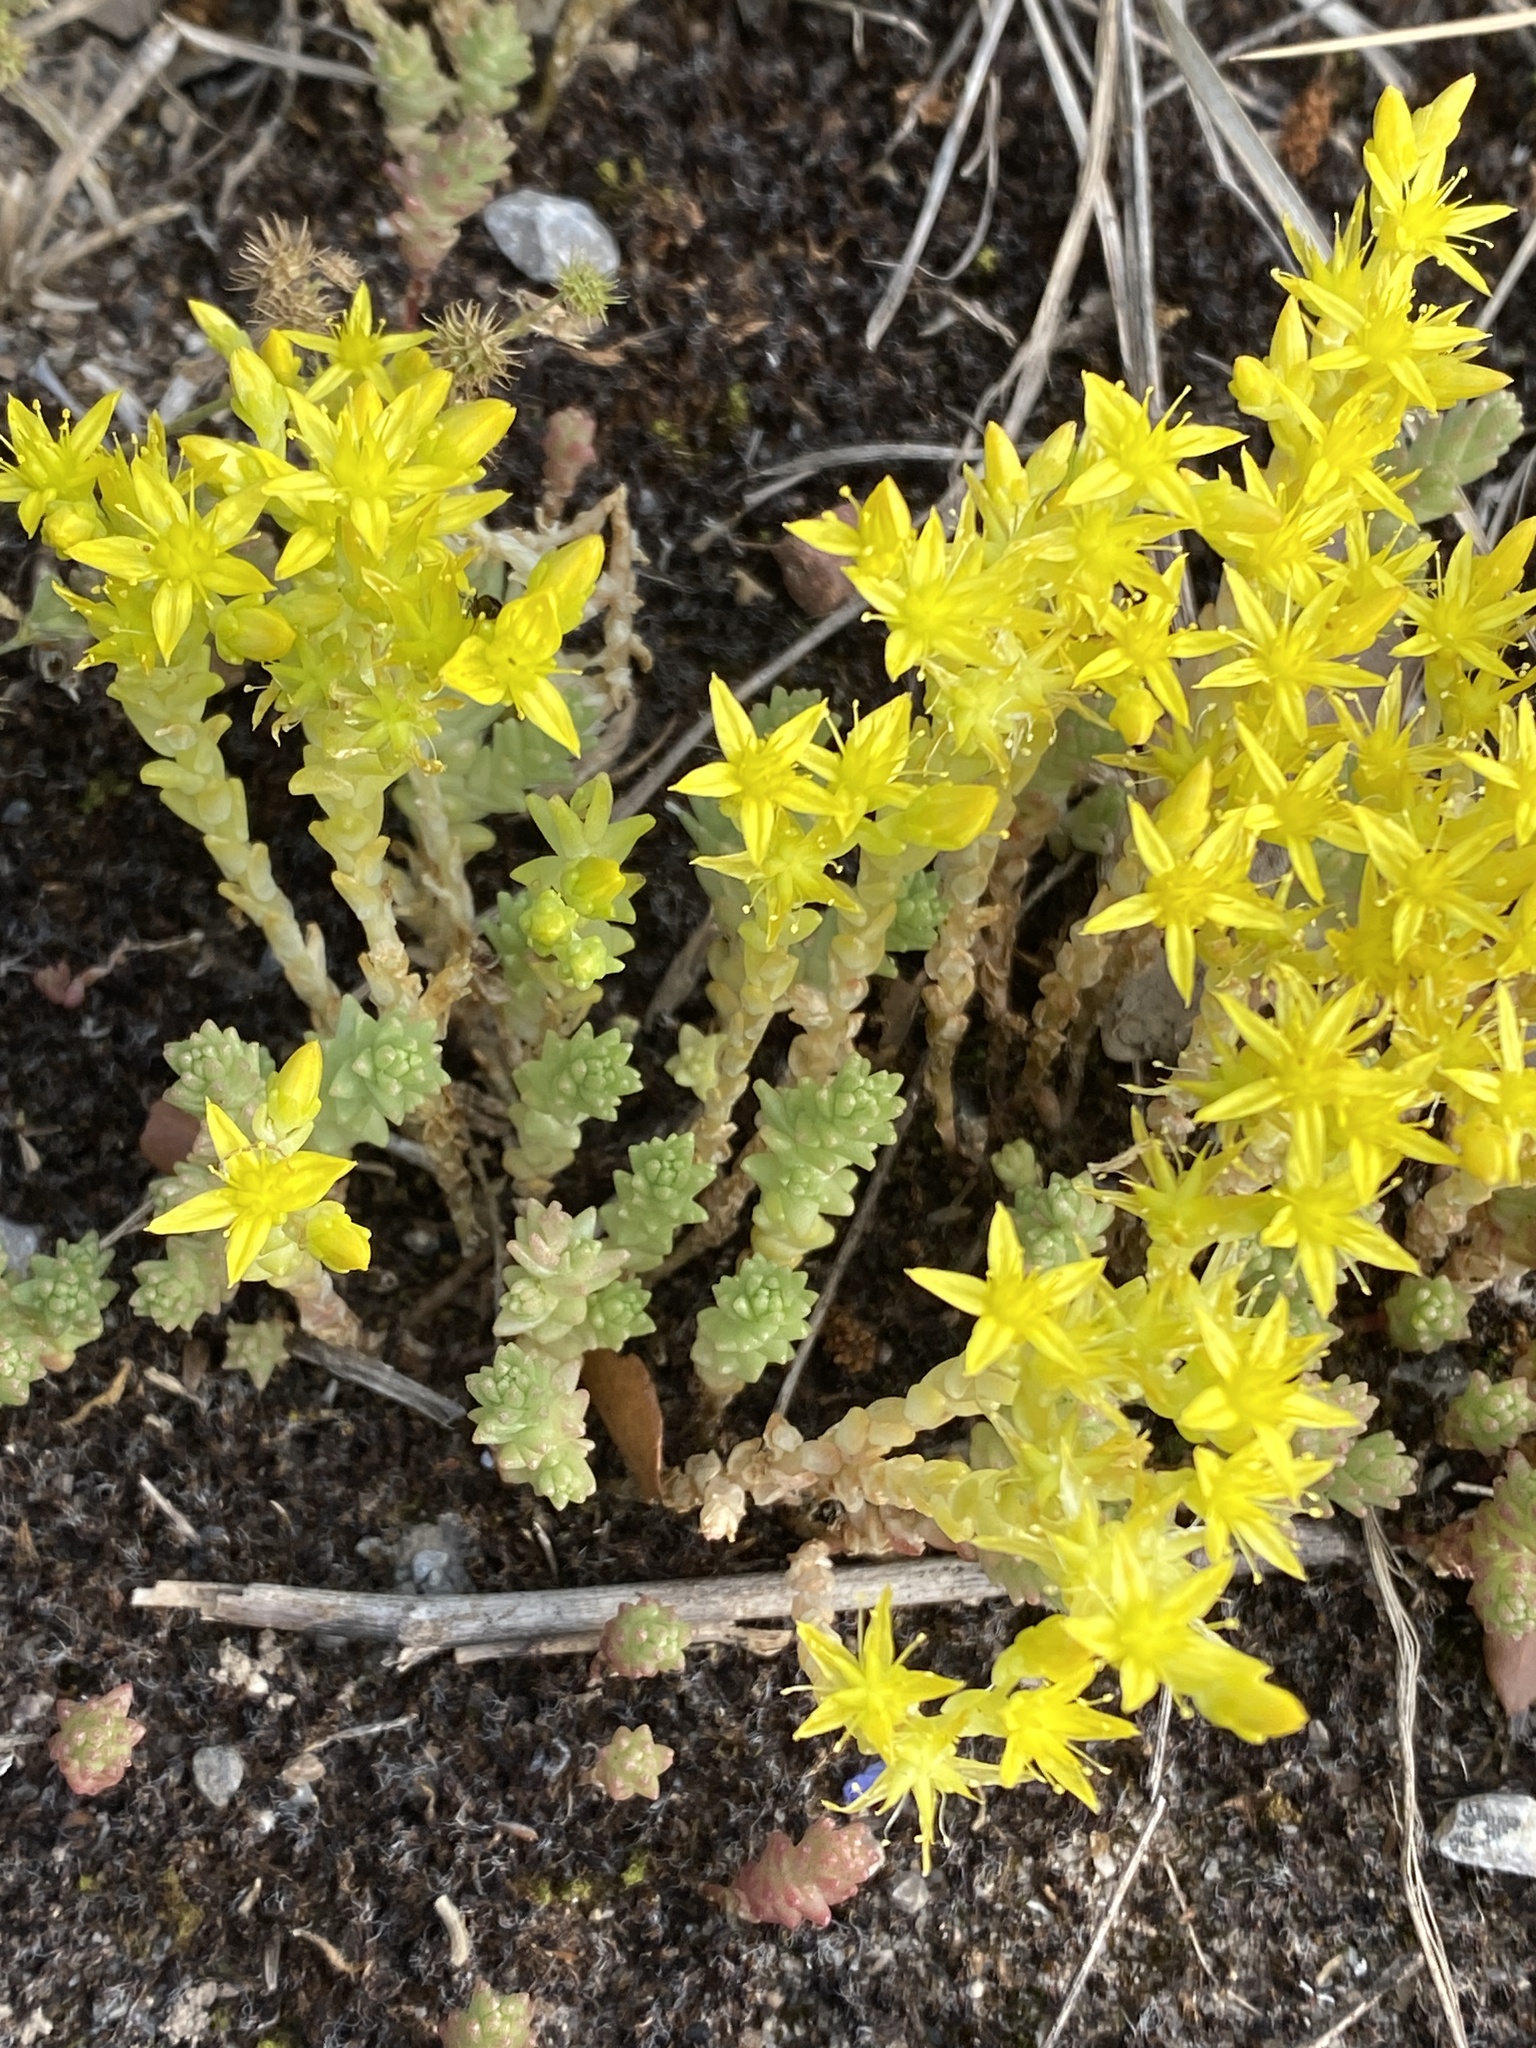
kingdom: Plantae
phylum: Tracheophyta
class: Magnoliopsida
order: Saxifragales
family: Crassulaceae
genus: Sedum
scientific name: Sedum acre
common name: Biting stonecrop
